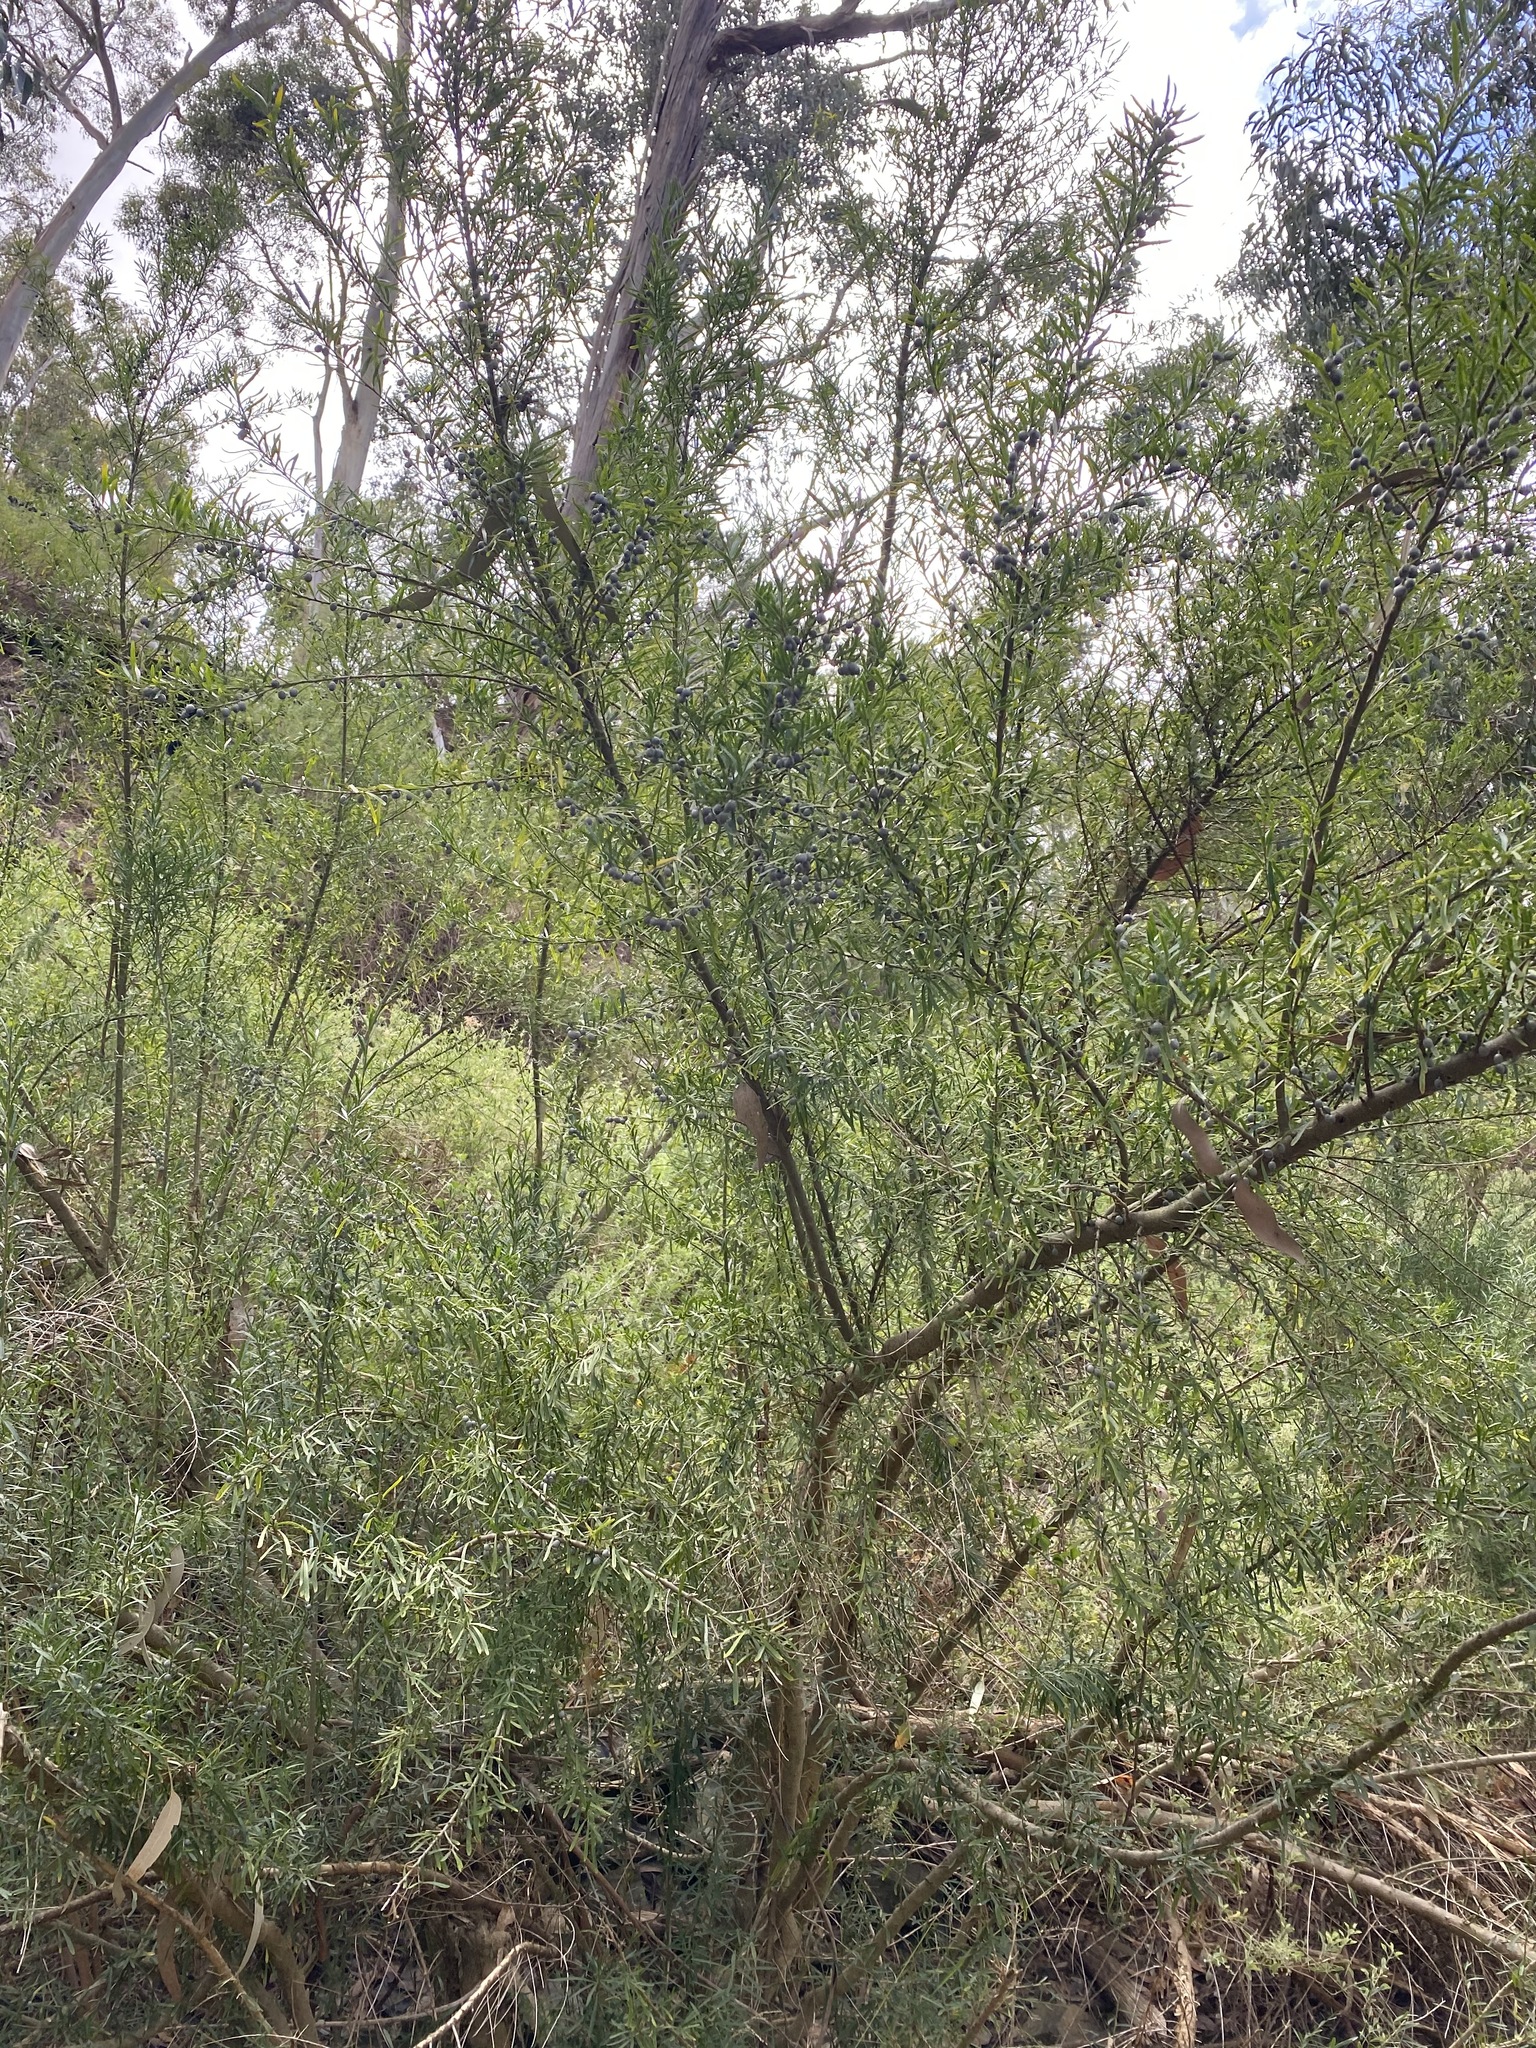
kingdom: Plantae
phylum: Tracheophyta
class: Magnoliopsida
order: Malpighiales
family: Violaceae
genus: Melicytus
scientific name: Melicytus dentatus
